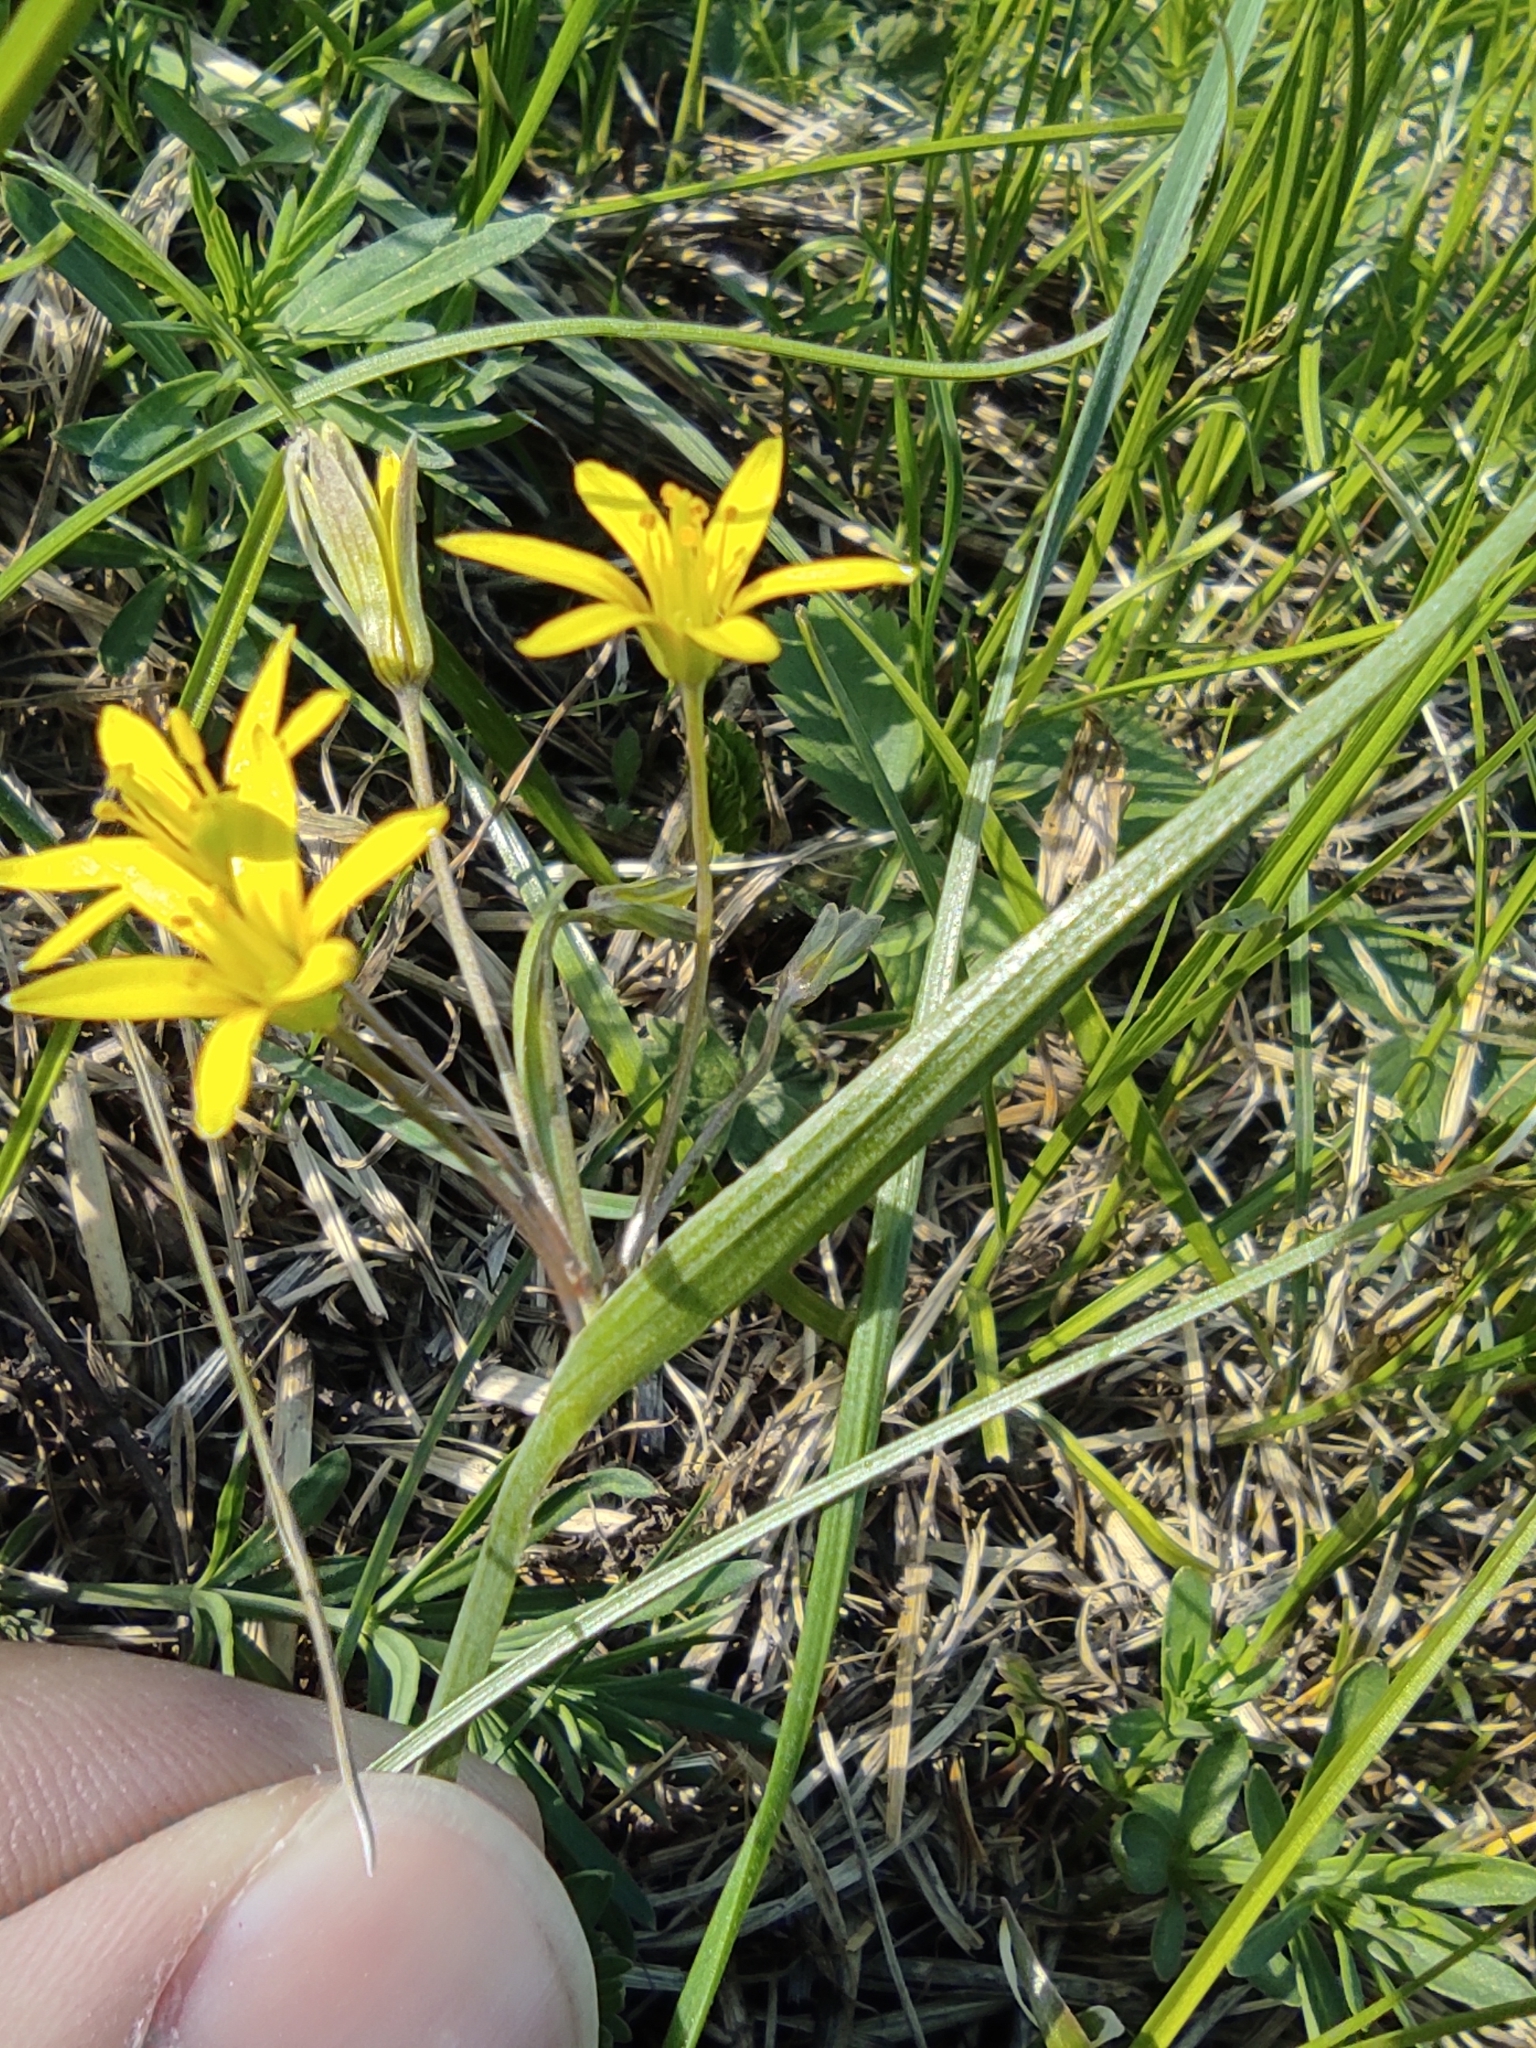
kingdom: Plantae
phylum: Tracheophyta
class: Liliopsida
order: Liliales
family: Liliaceae
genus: Gagea
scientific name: Gagea fragifera
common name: Lily
